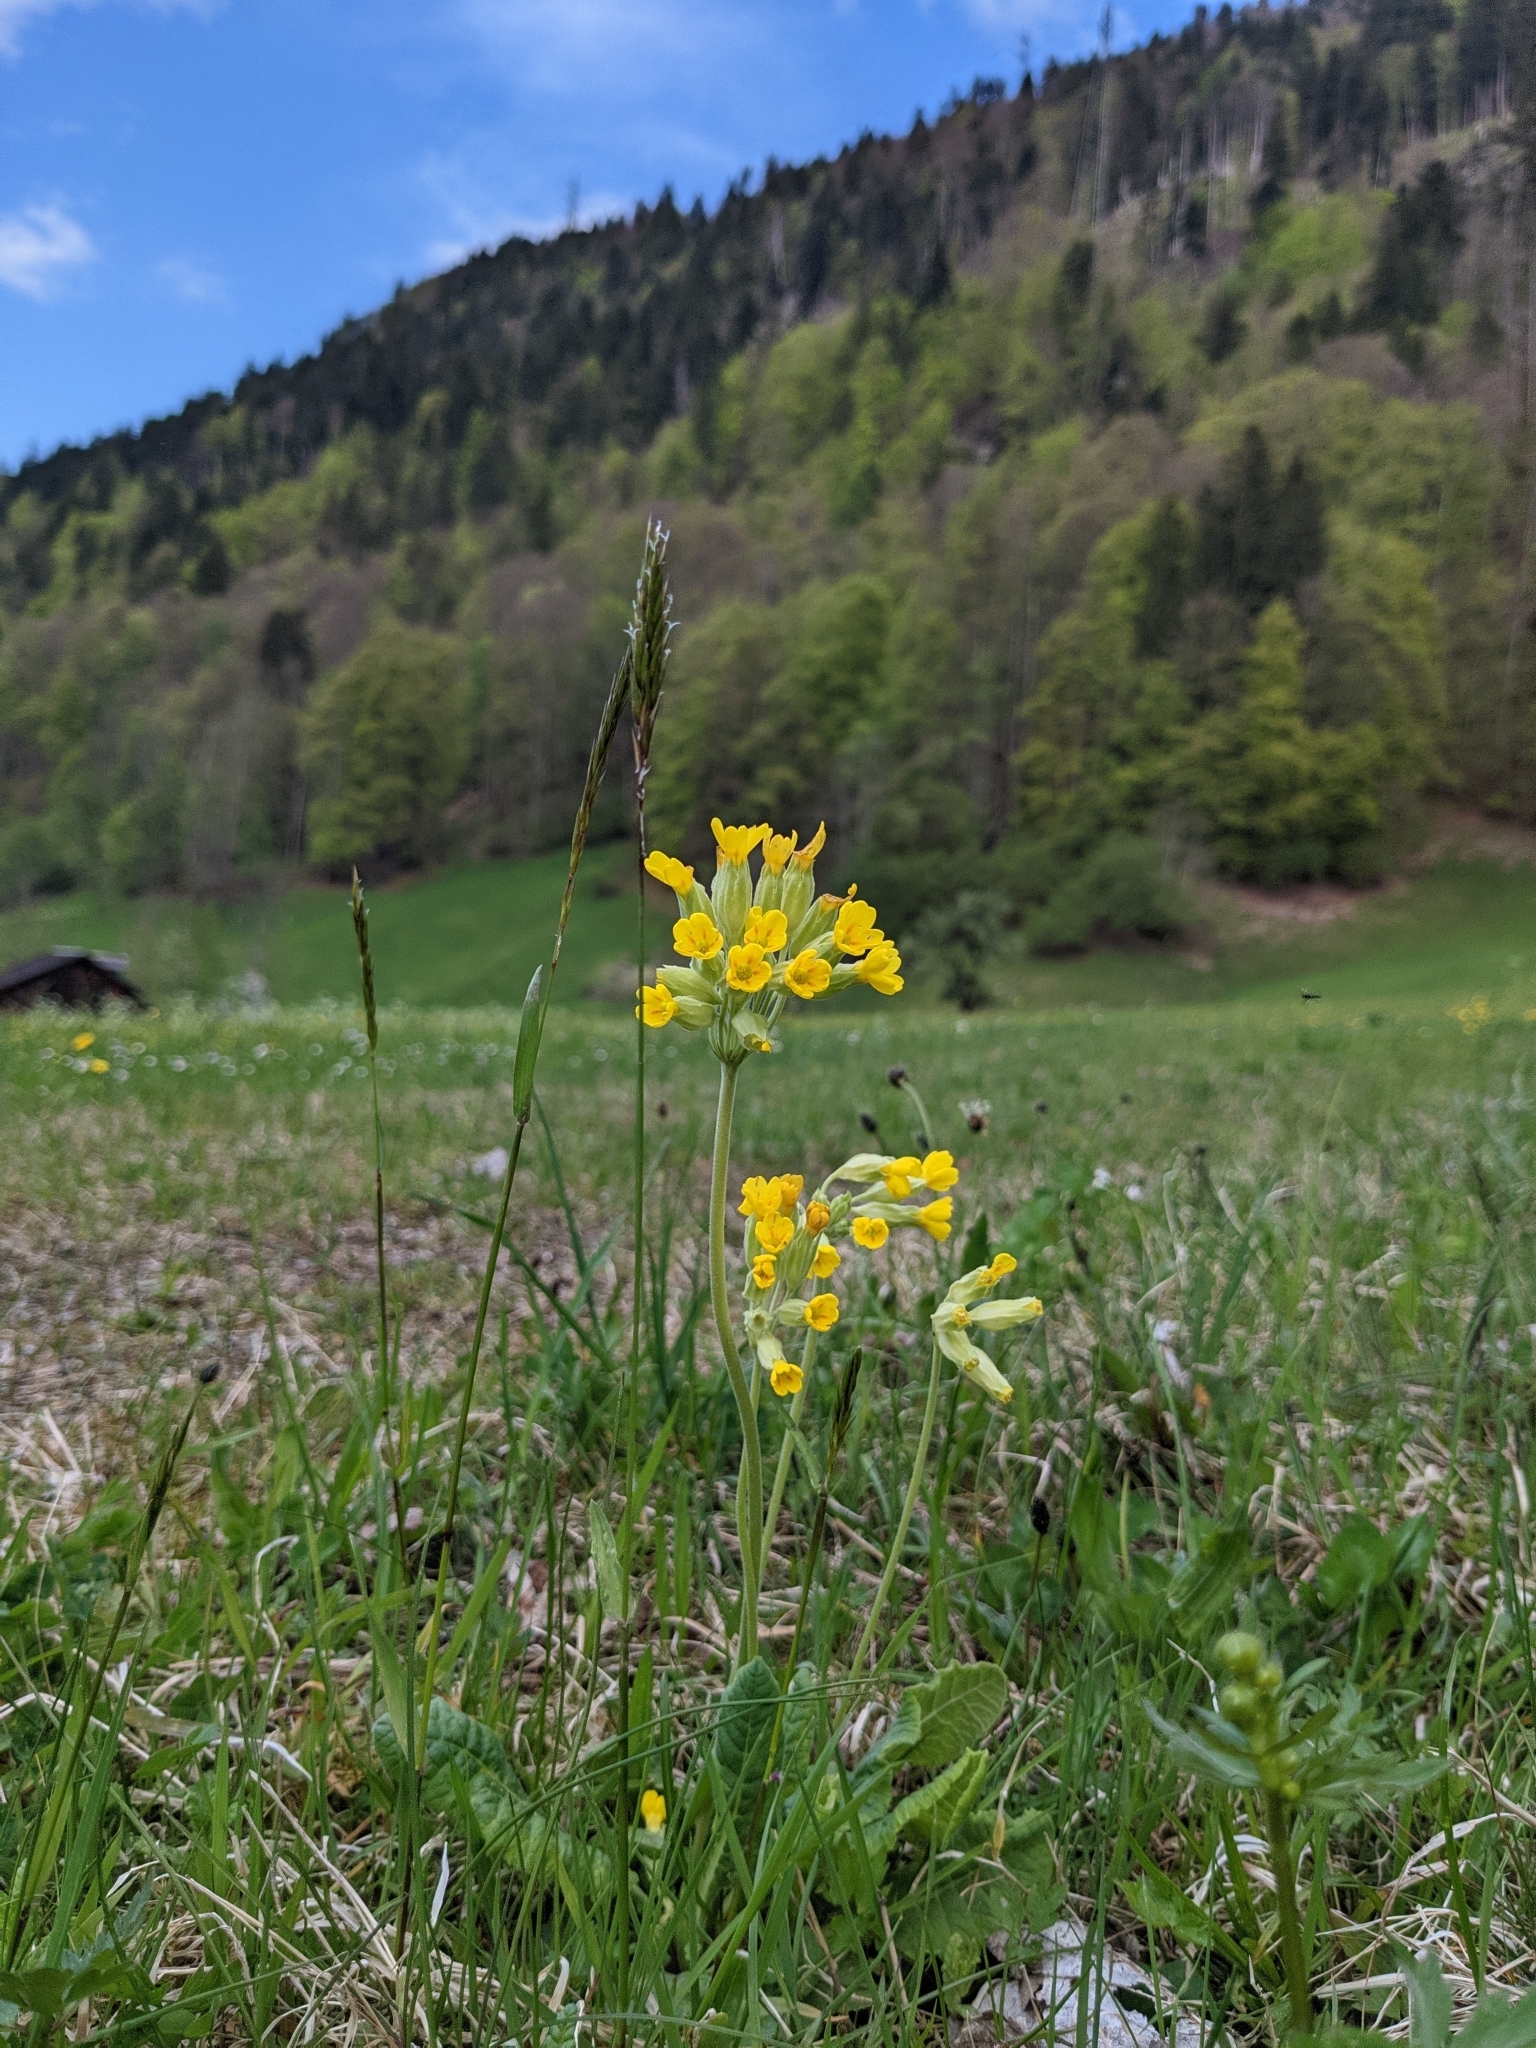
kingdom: Plantae
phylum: Tracheophyta
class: Magnoliopsida
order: Ericales
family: Primulaceae
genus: Primula
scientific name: Primula veris
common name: Cowslip
